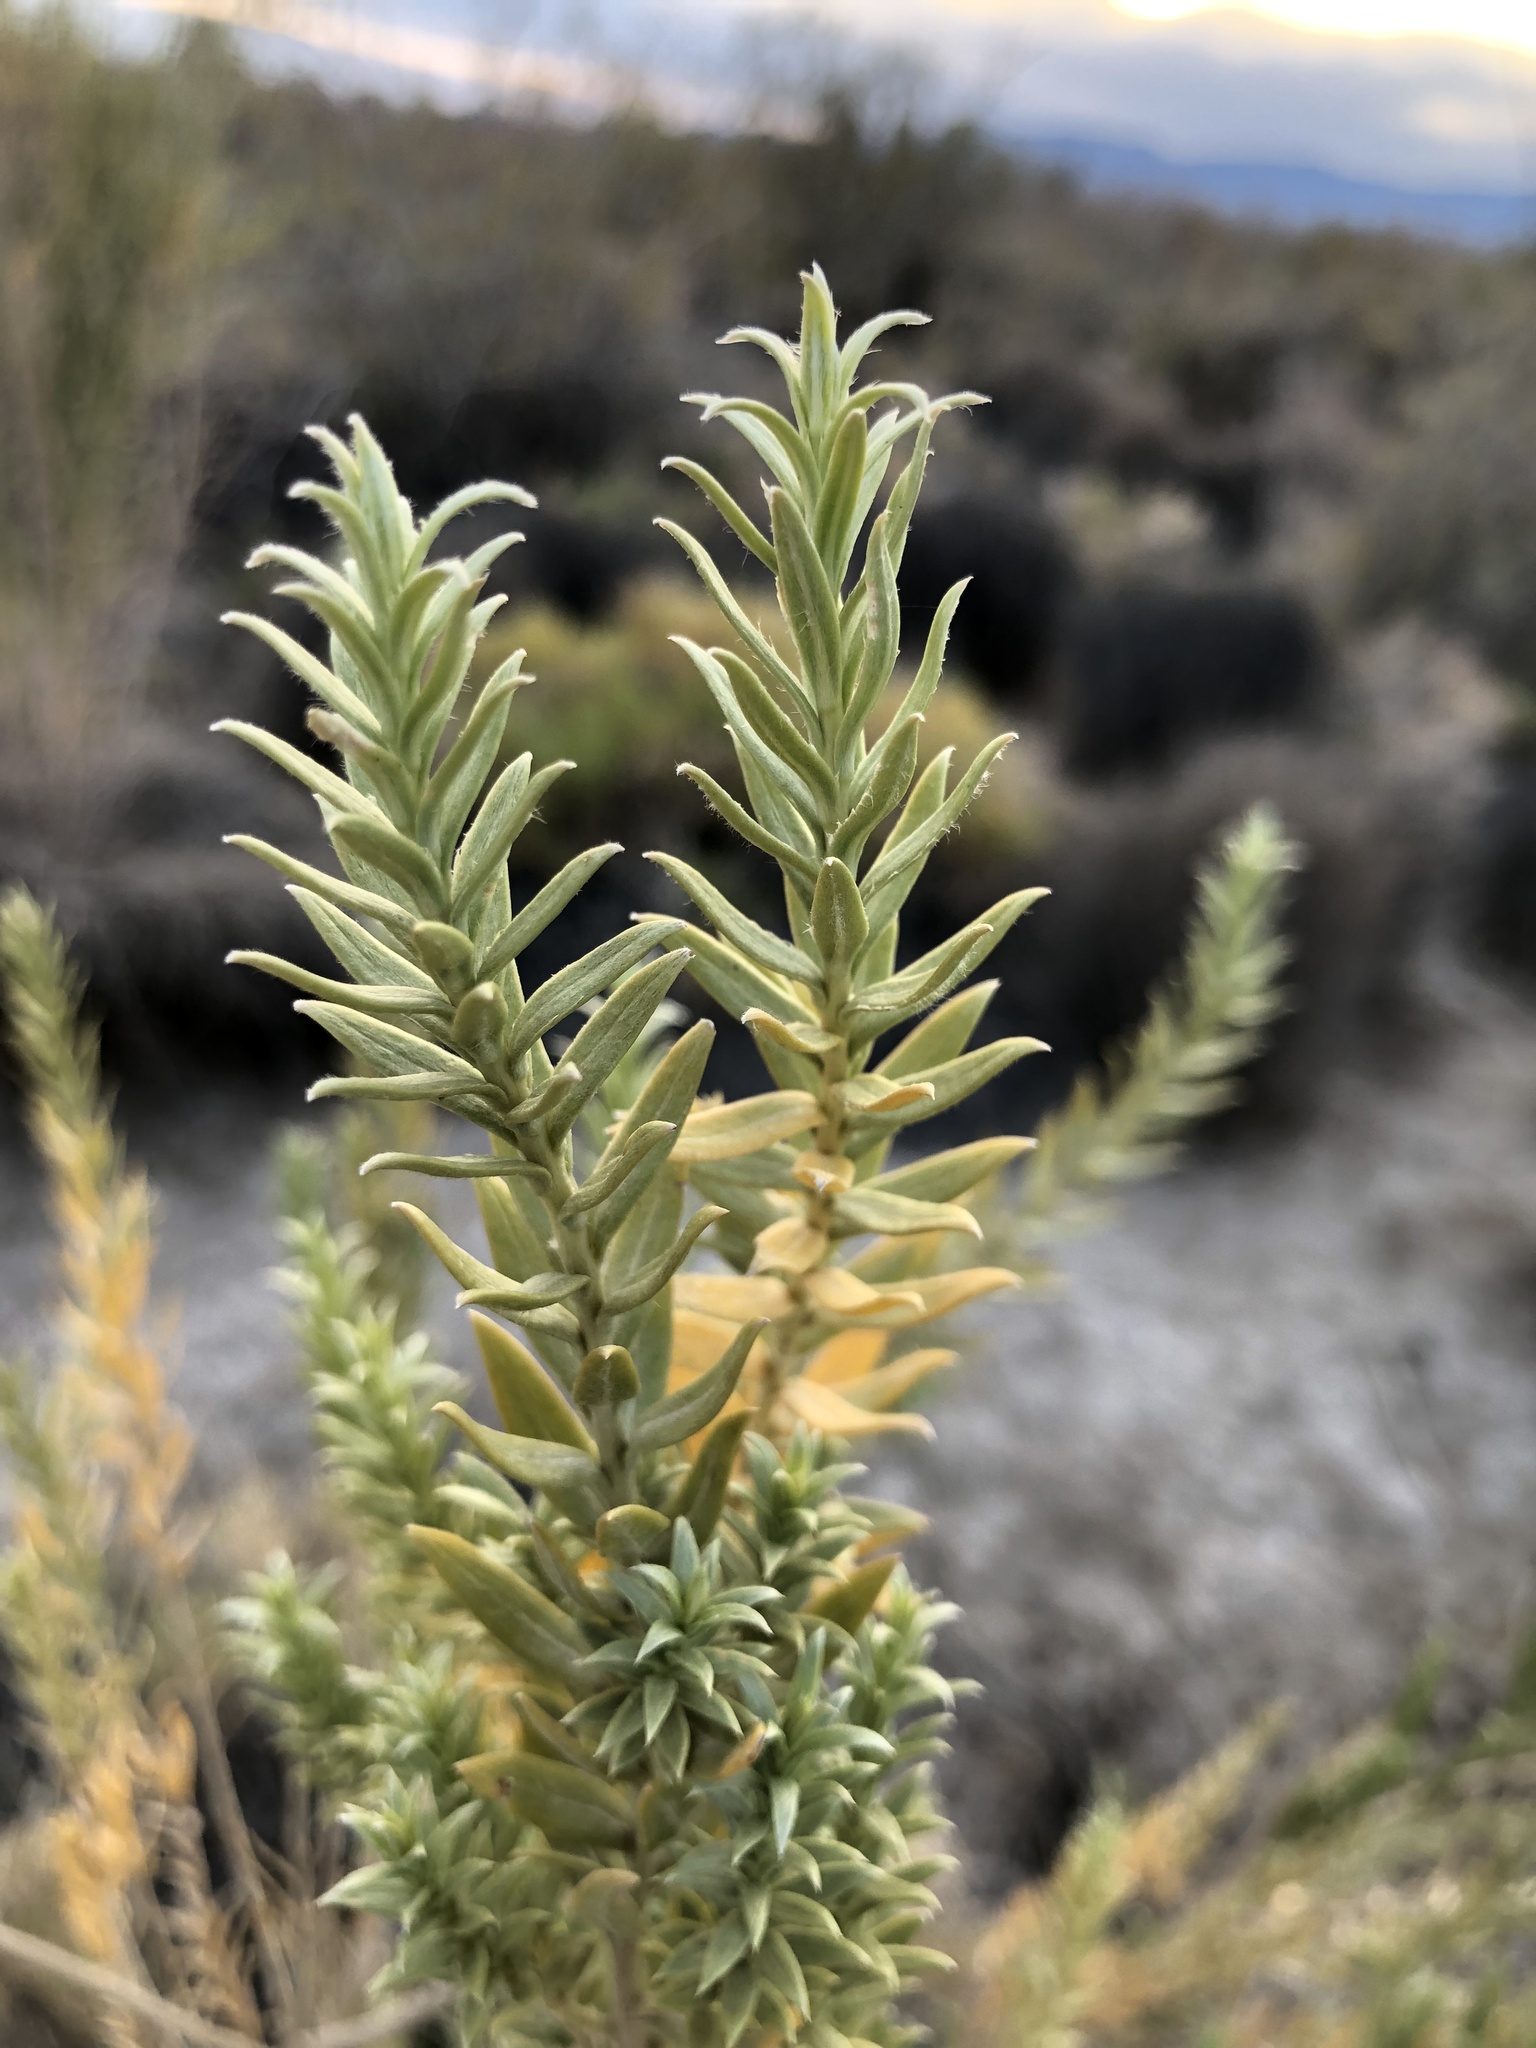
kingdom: Plantae
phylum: Tracheophyta
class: Magnoliopsida
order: Asterales
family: Asteraceae
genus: Pluchea
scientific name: Pluchea sericea
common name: Arrow-weed
